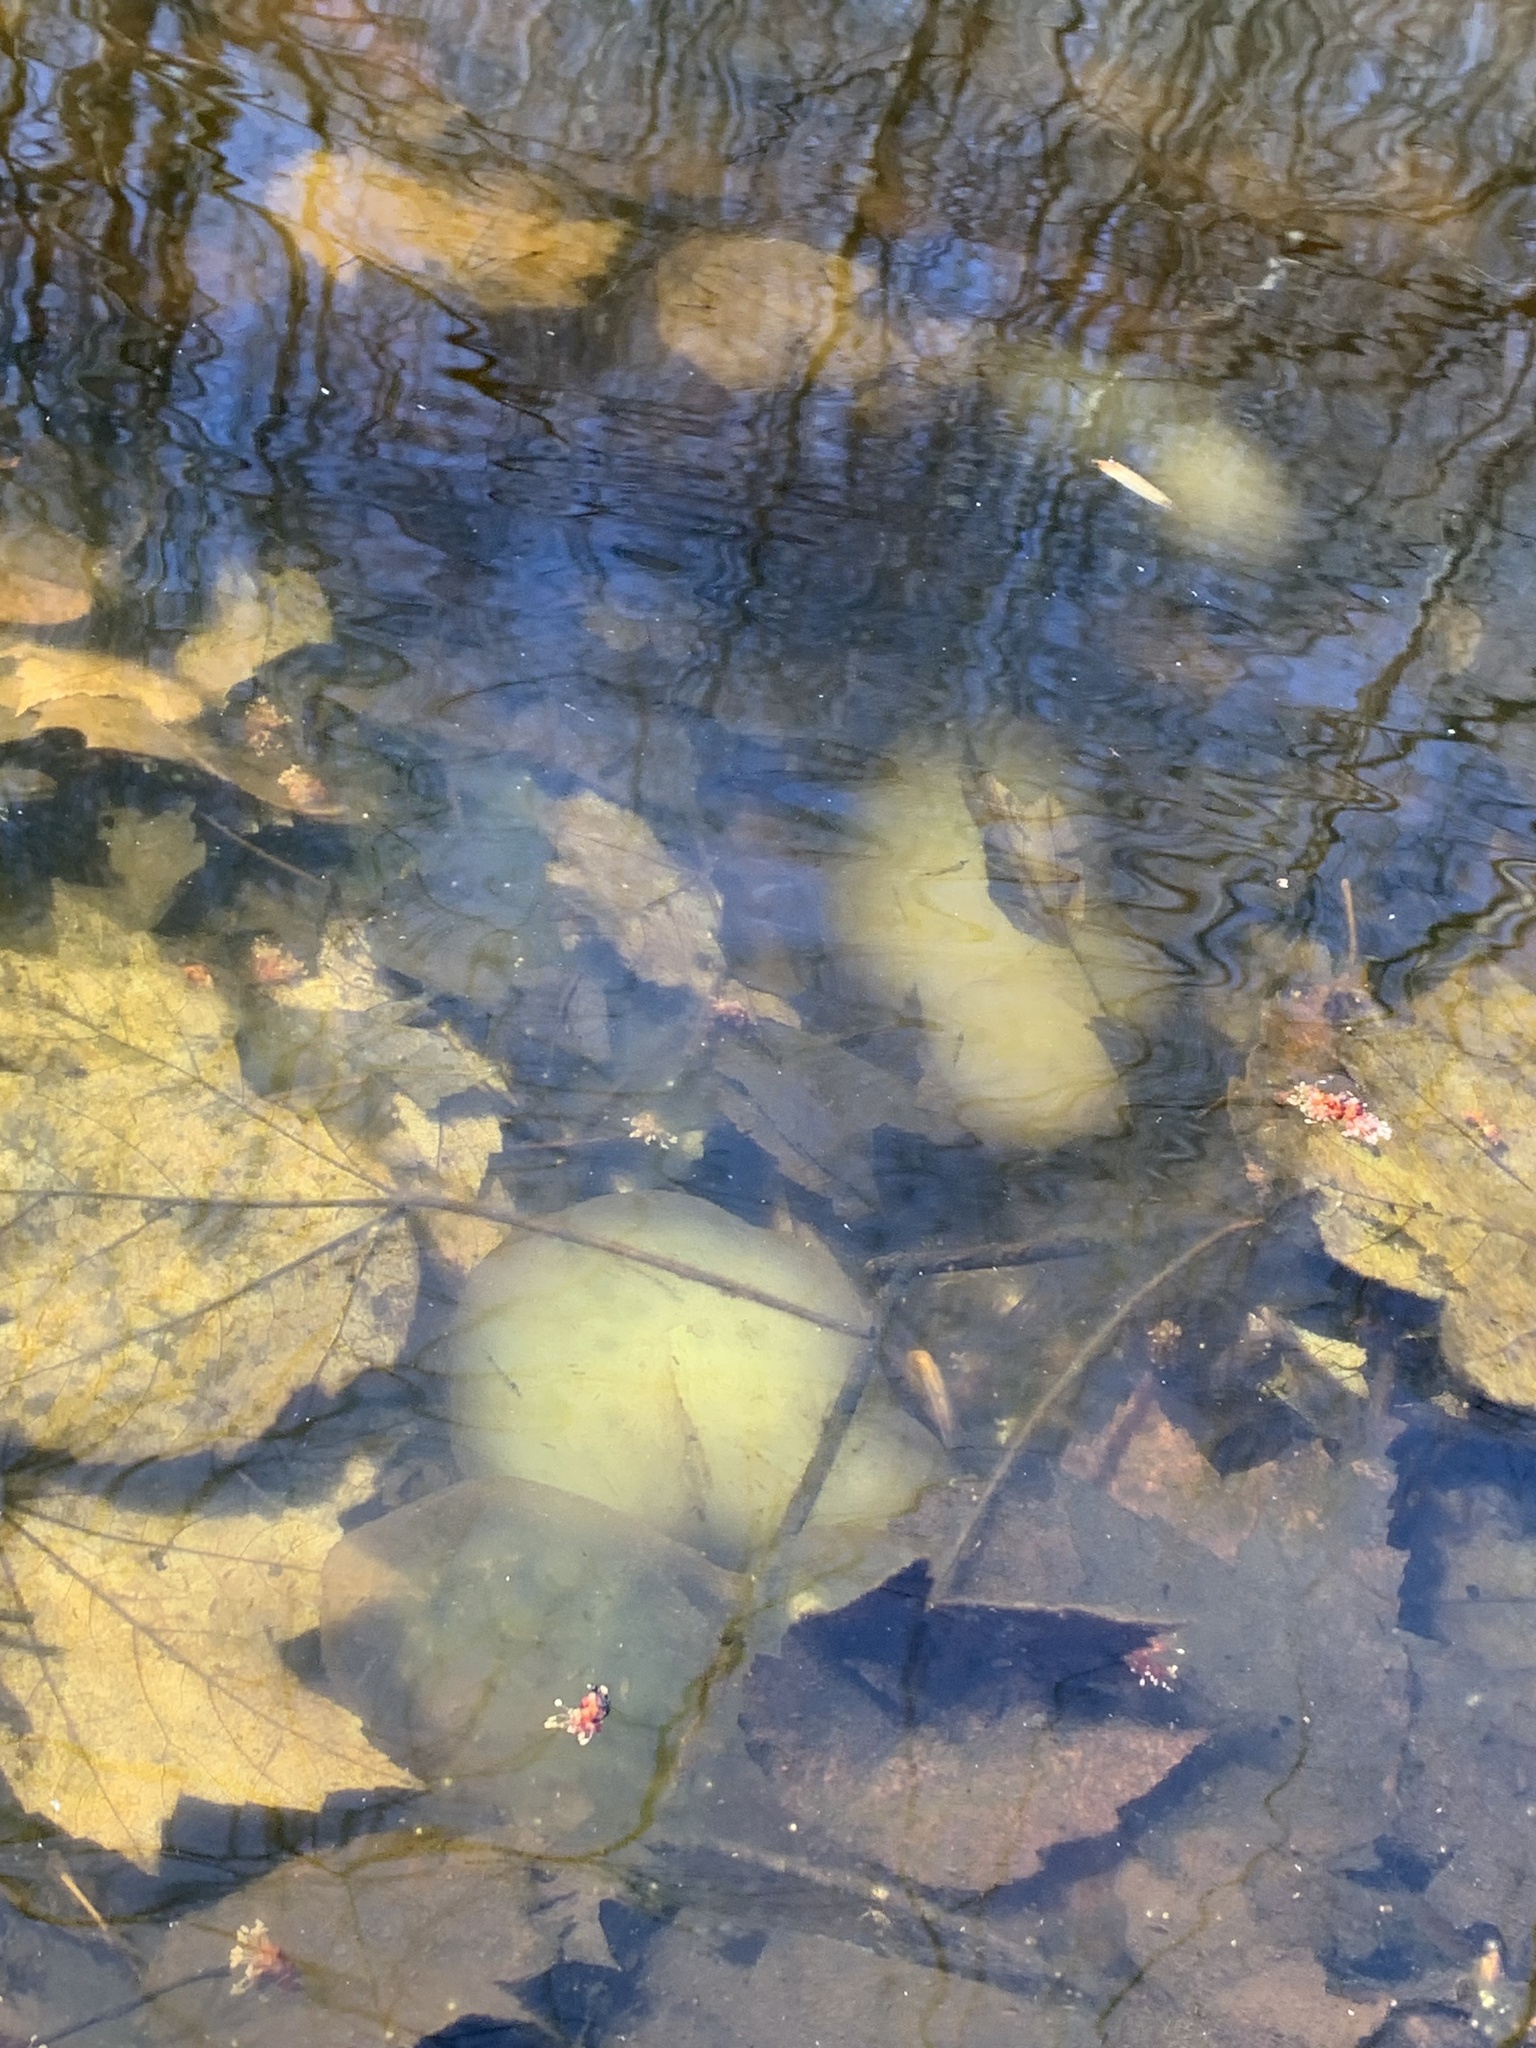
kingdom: Plantae
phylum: Chlorophyta
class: Chlorophyceae
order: Chlamydomonadales
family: Chlorococcaceae
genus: Oophila
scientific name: Oophila amblystomatis
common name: Salamander algae
